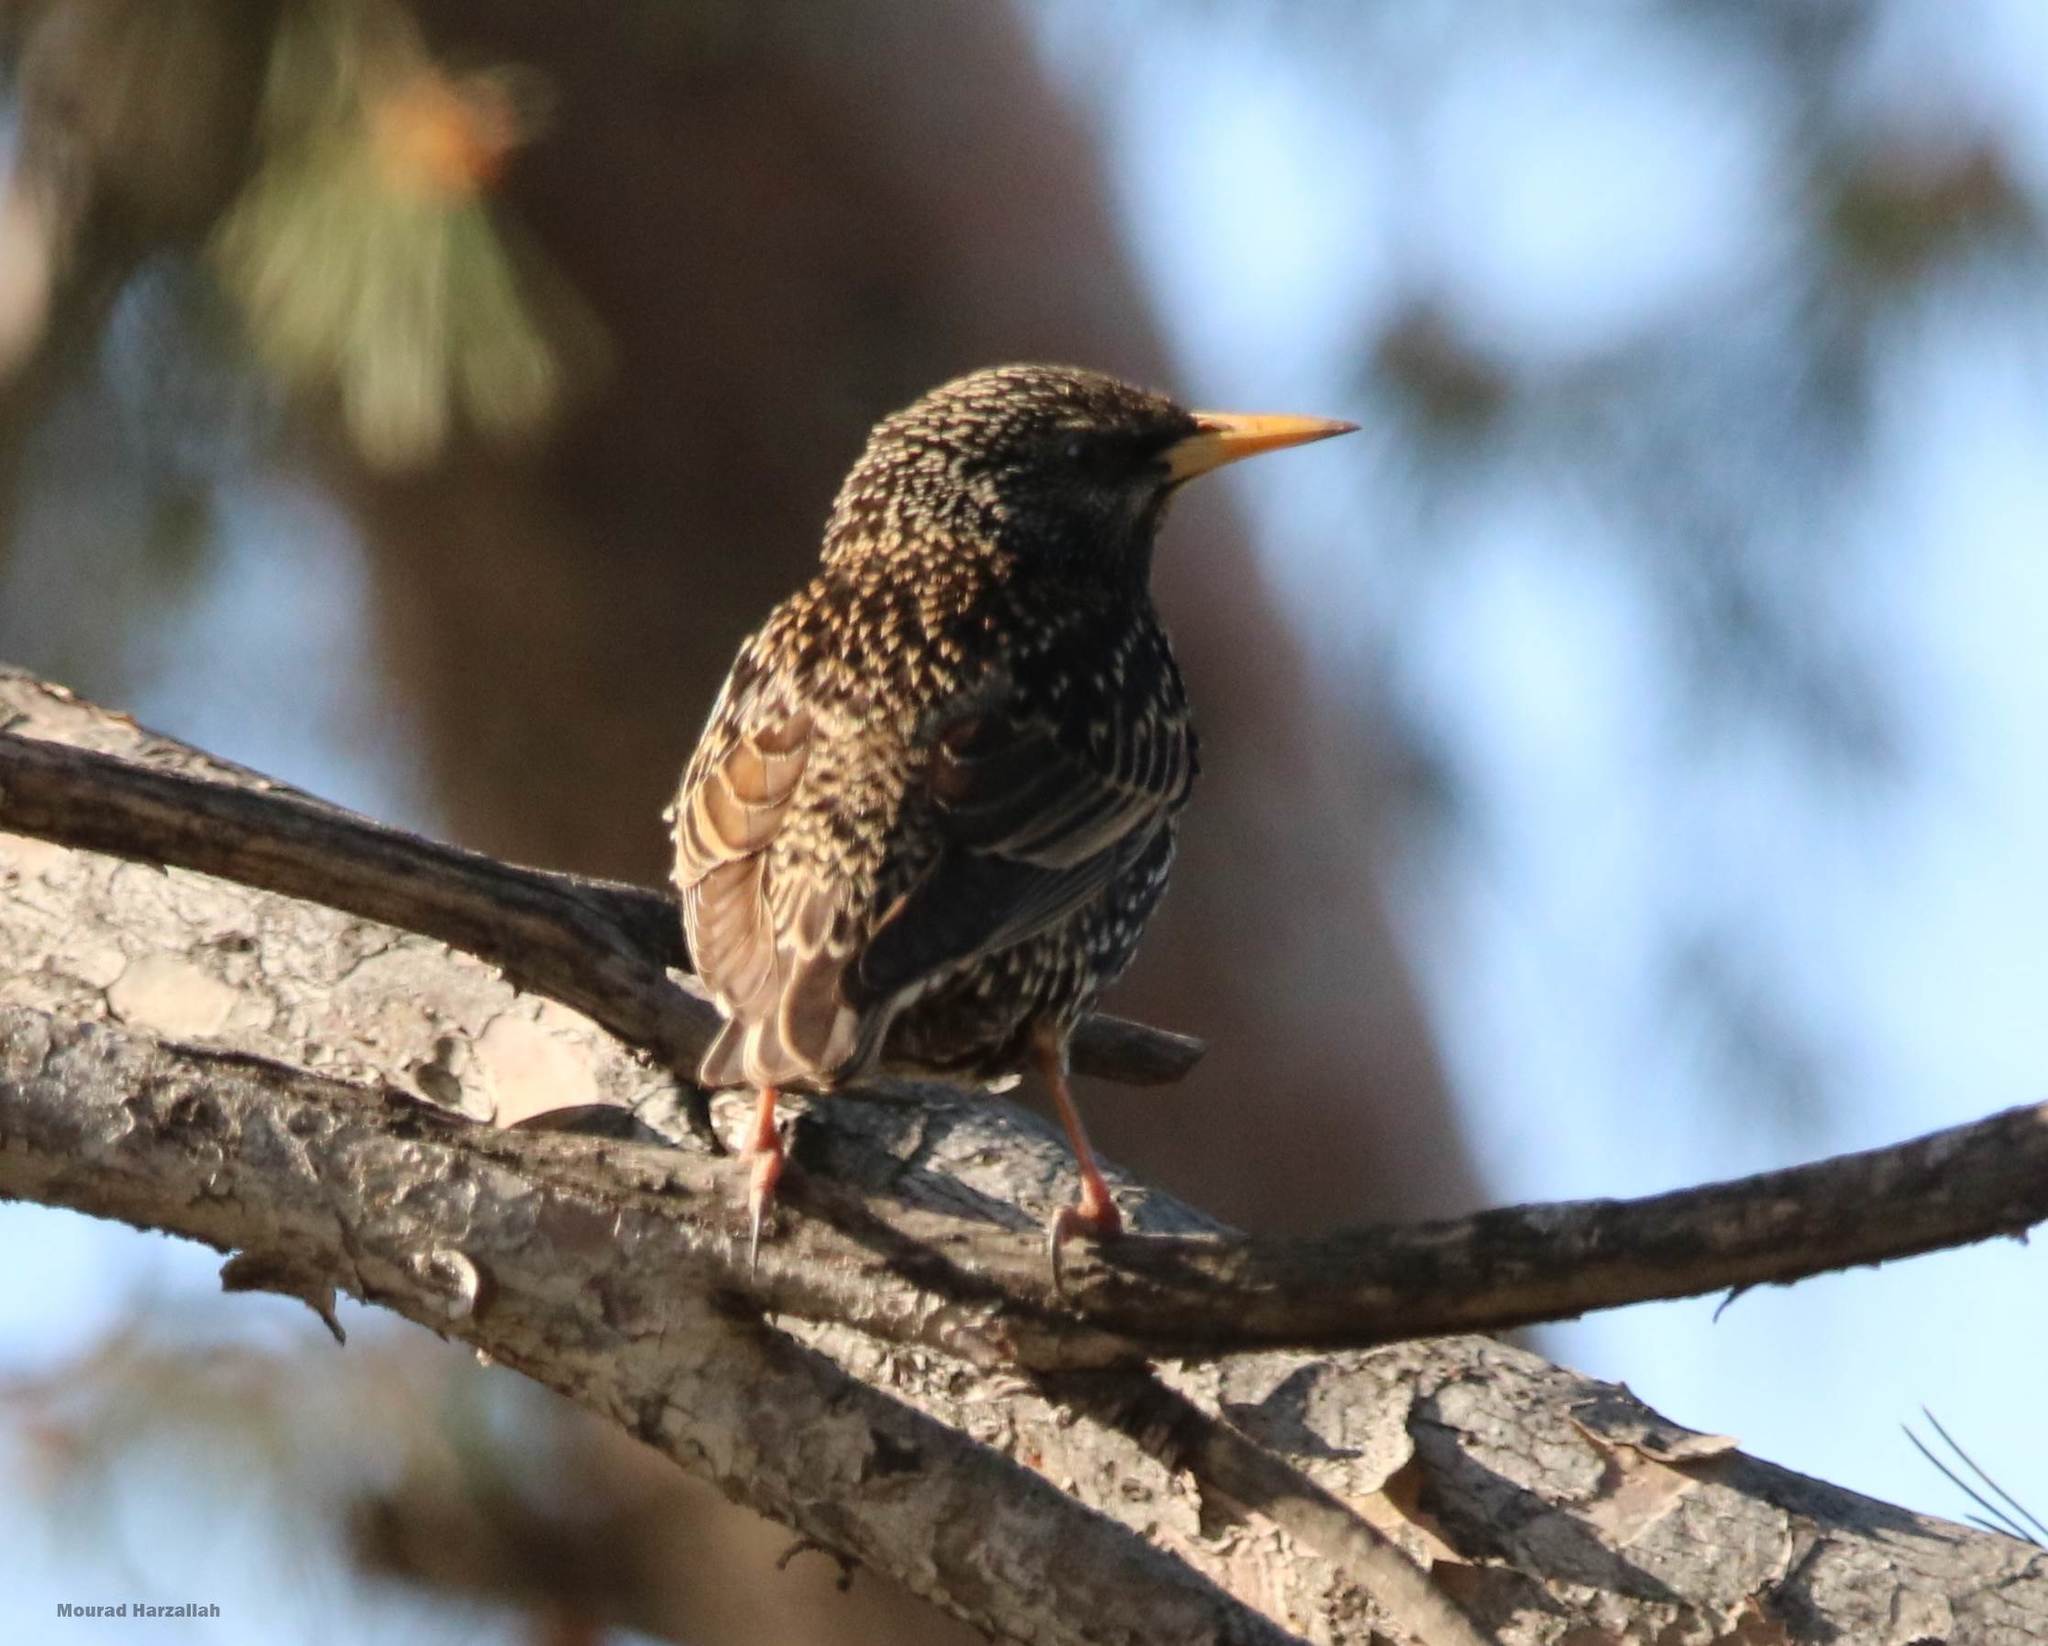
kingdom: Animalia
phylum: Chordata
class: Aves
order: Passeriformes
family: Sturnidae
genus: Sturnus
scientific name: Sturnus vulgaris
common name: Common starling
